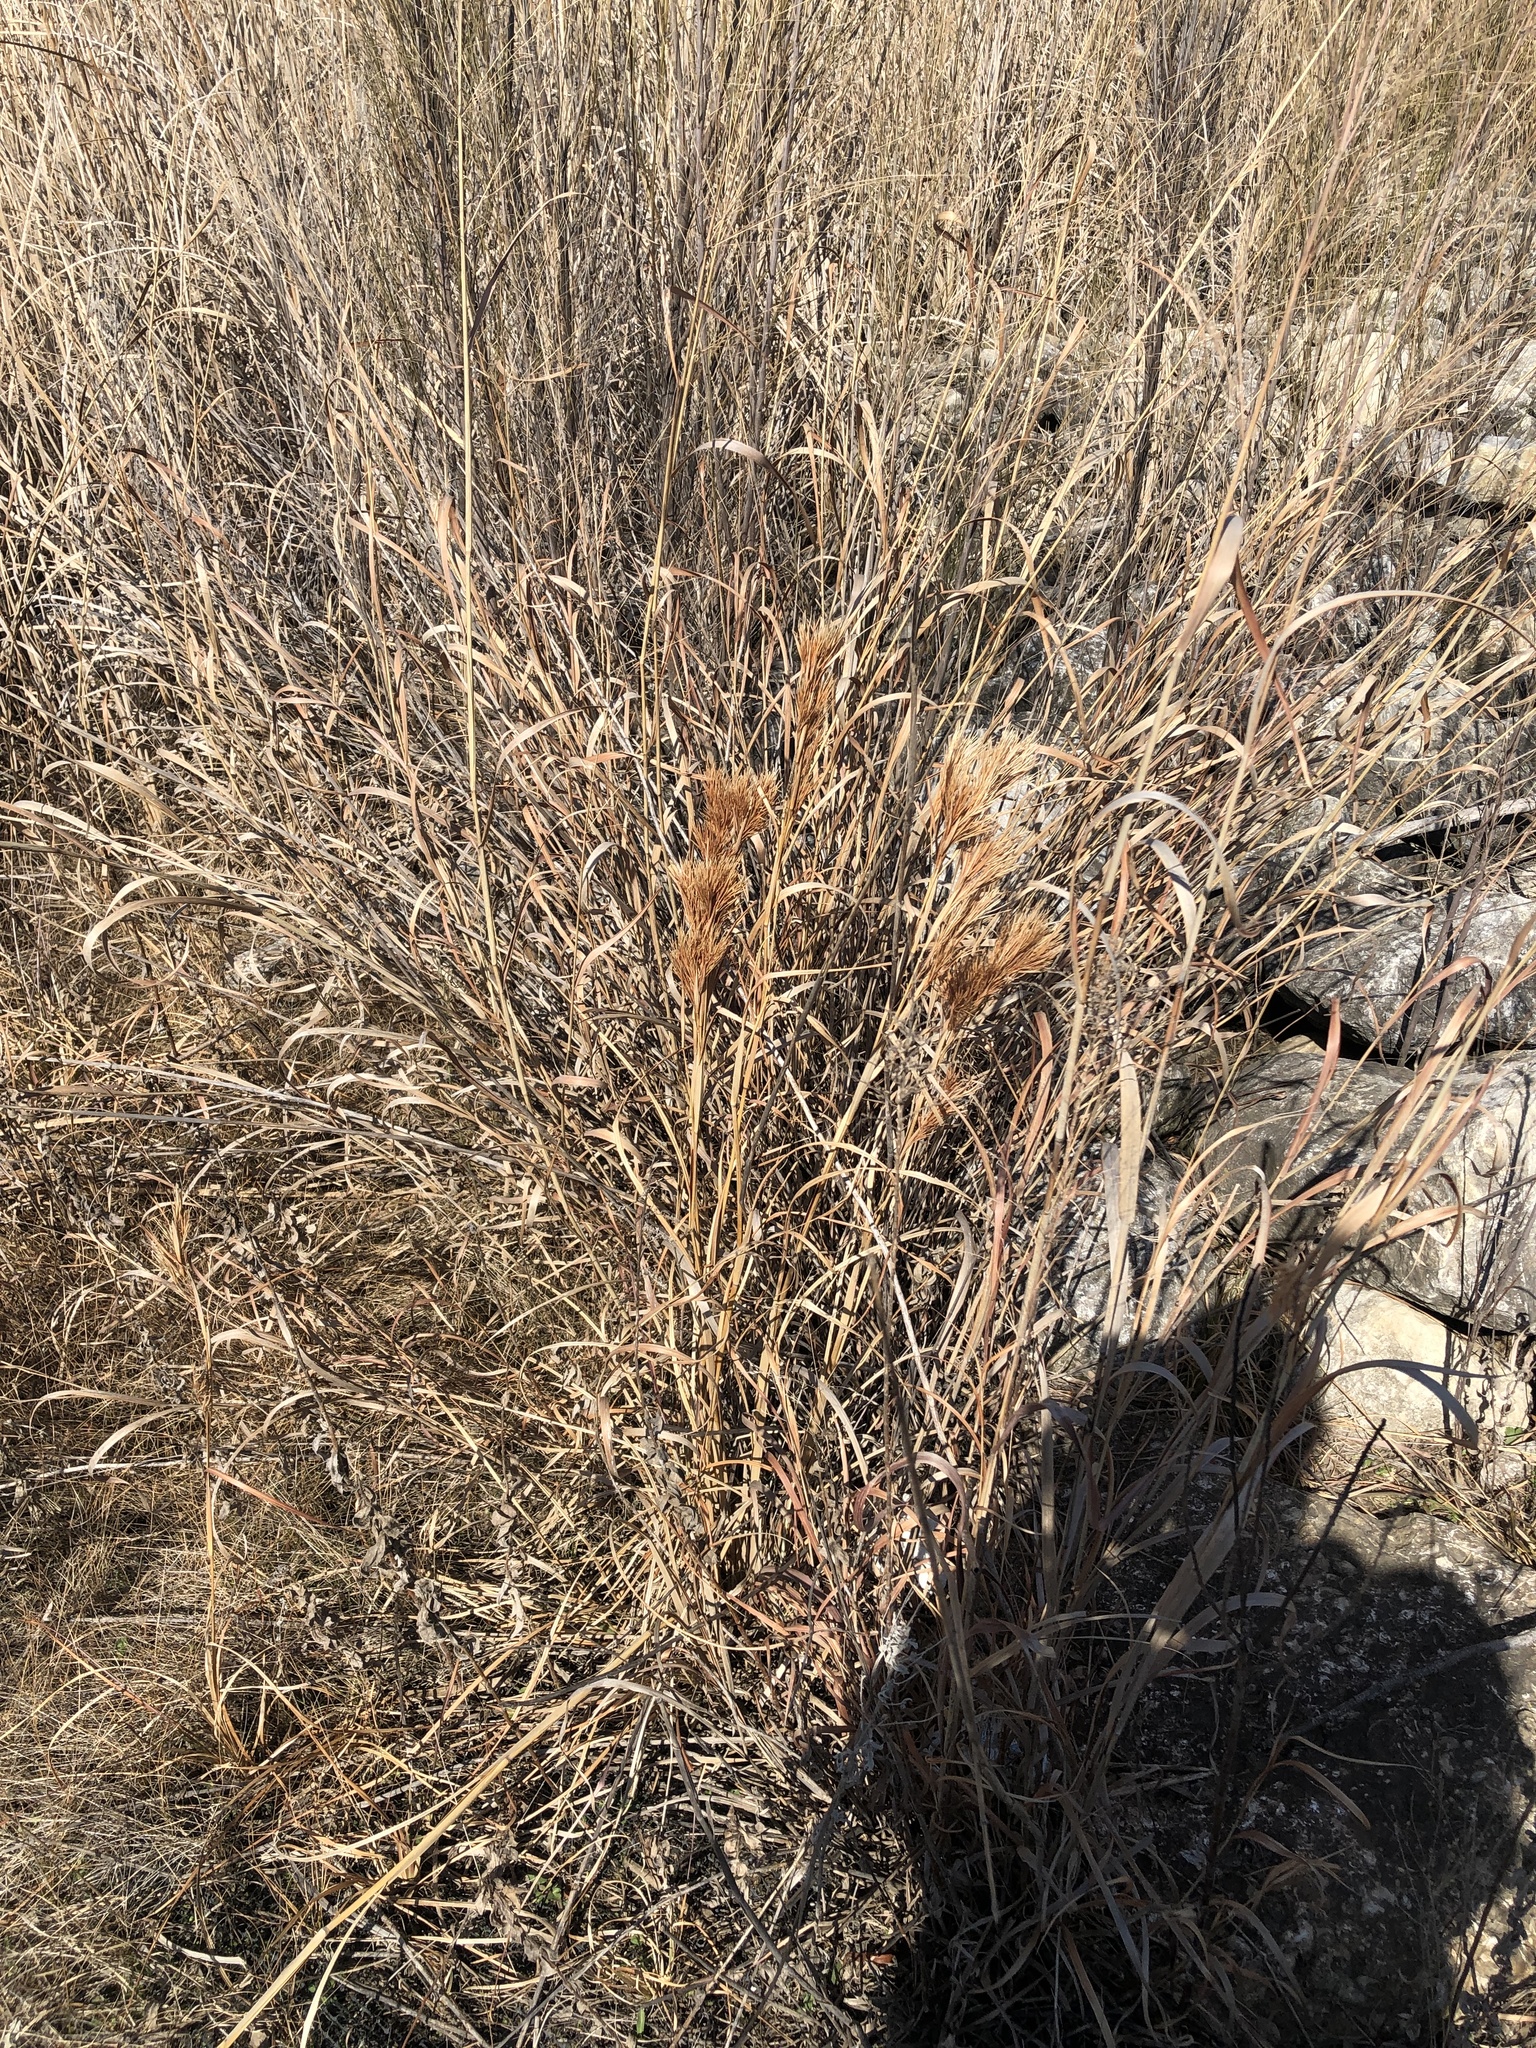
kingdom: Plantae
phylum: Tracheophyta
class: Liliopsida
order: Poales
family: Poaceae
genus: Andropogon
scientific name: Andropogon tenuispatheus
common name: Bushy bluestem
